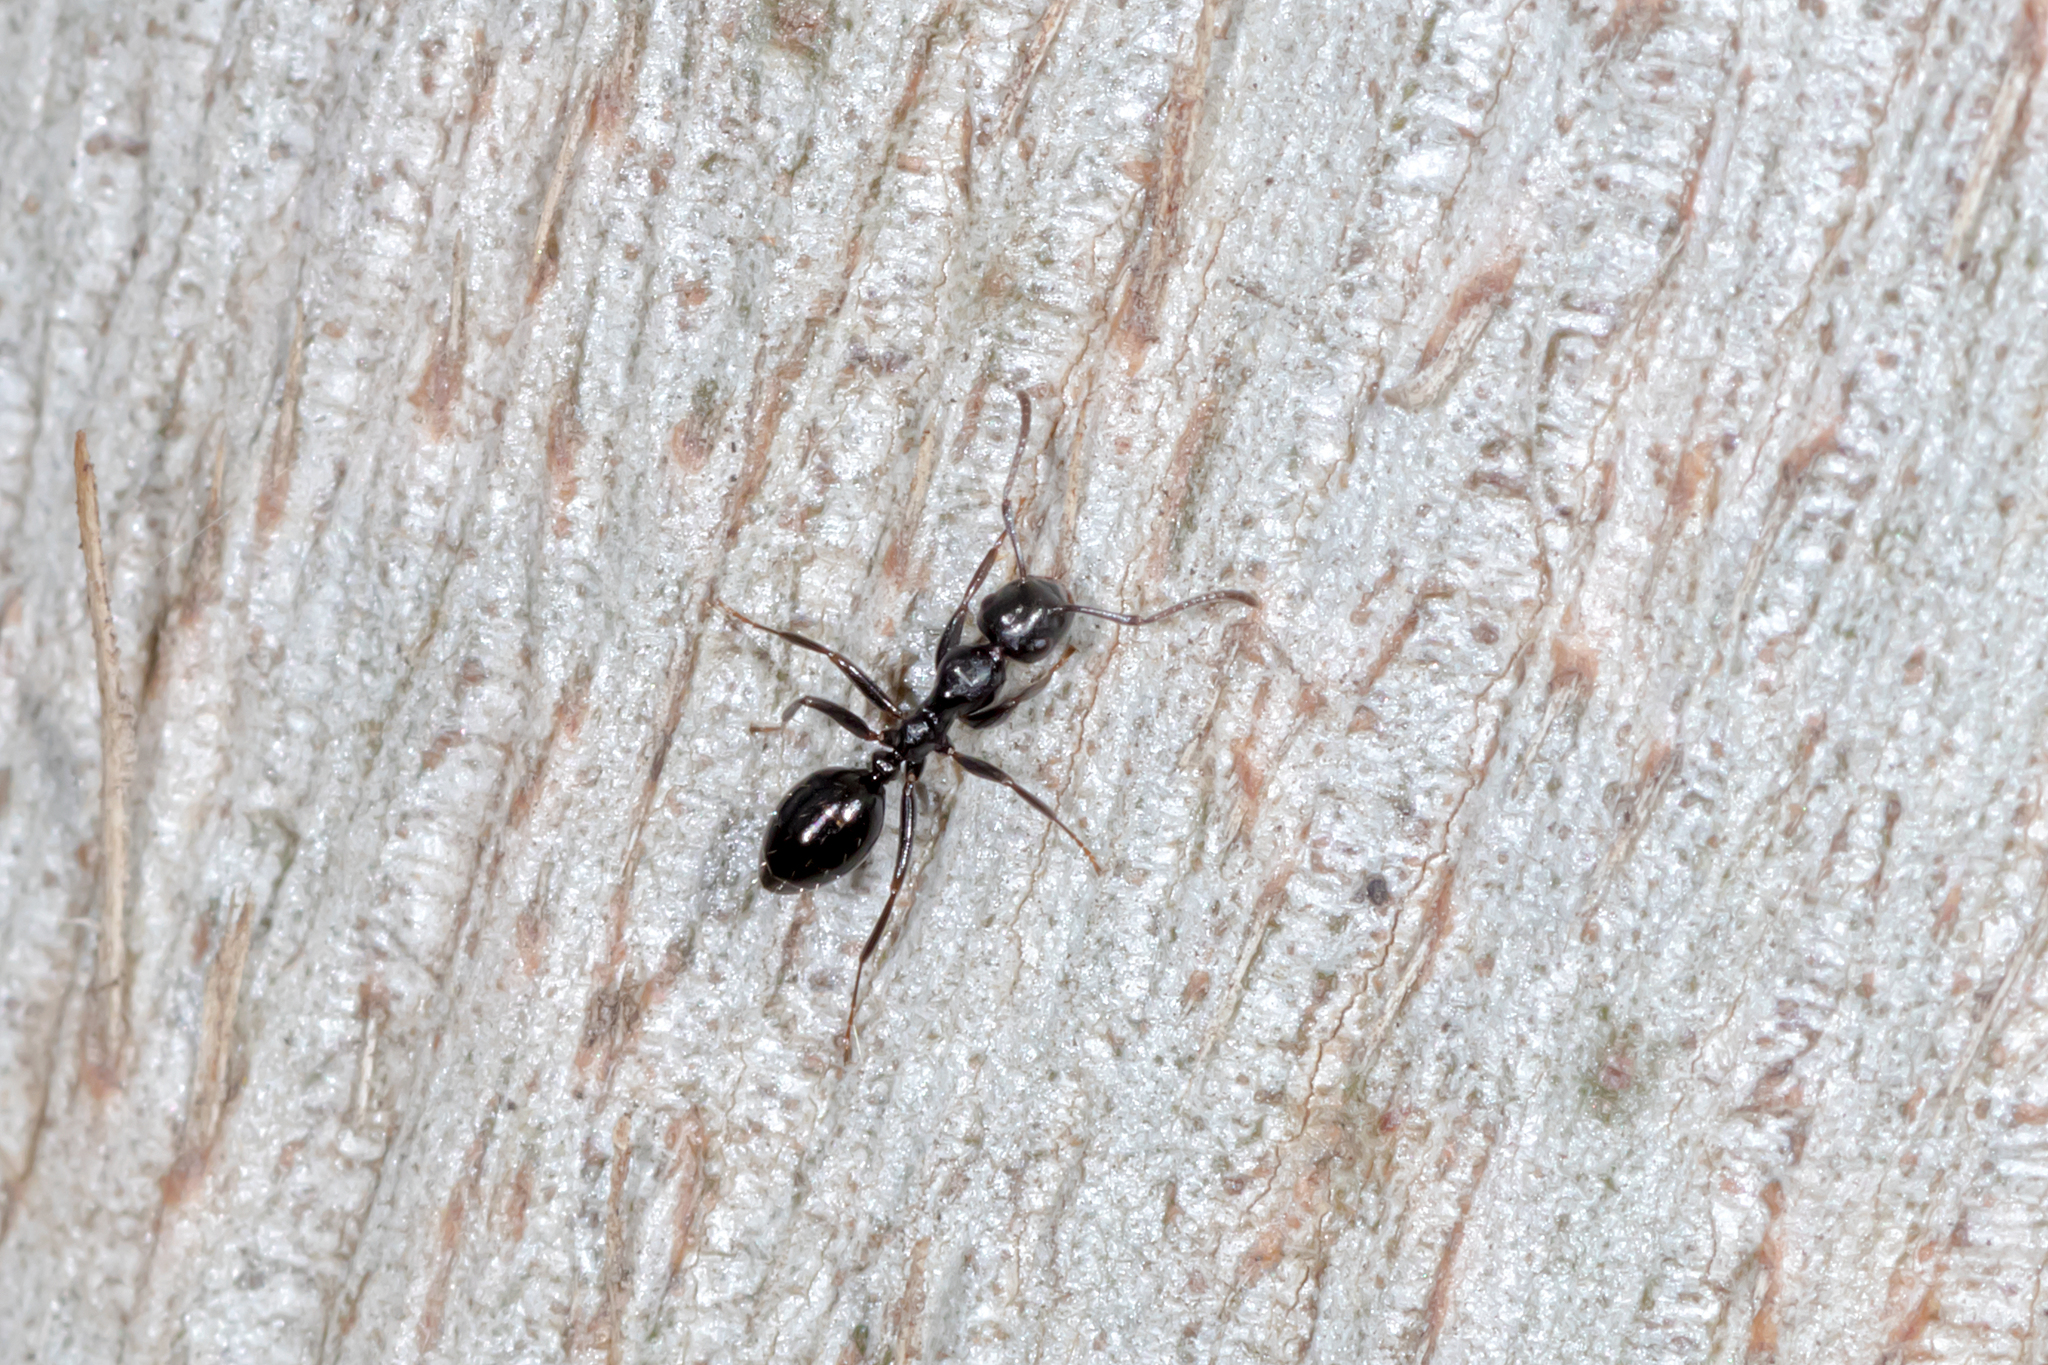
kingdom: Animalia
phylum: Arthropoda
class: Insecta
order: Hymenoptera
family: Formicidae
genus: Colobopsis
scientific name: Colobopsis gasseri
